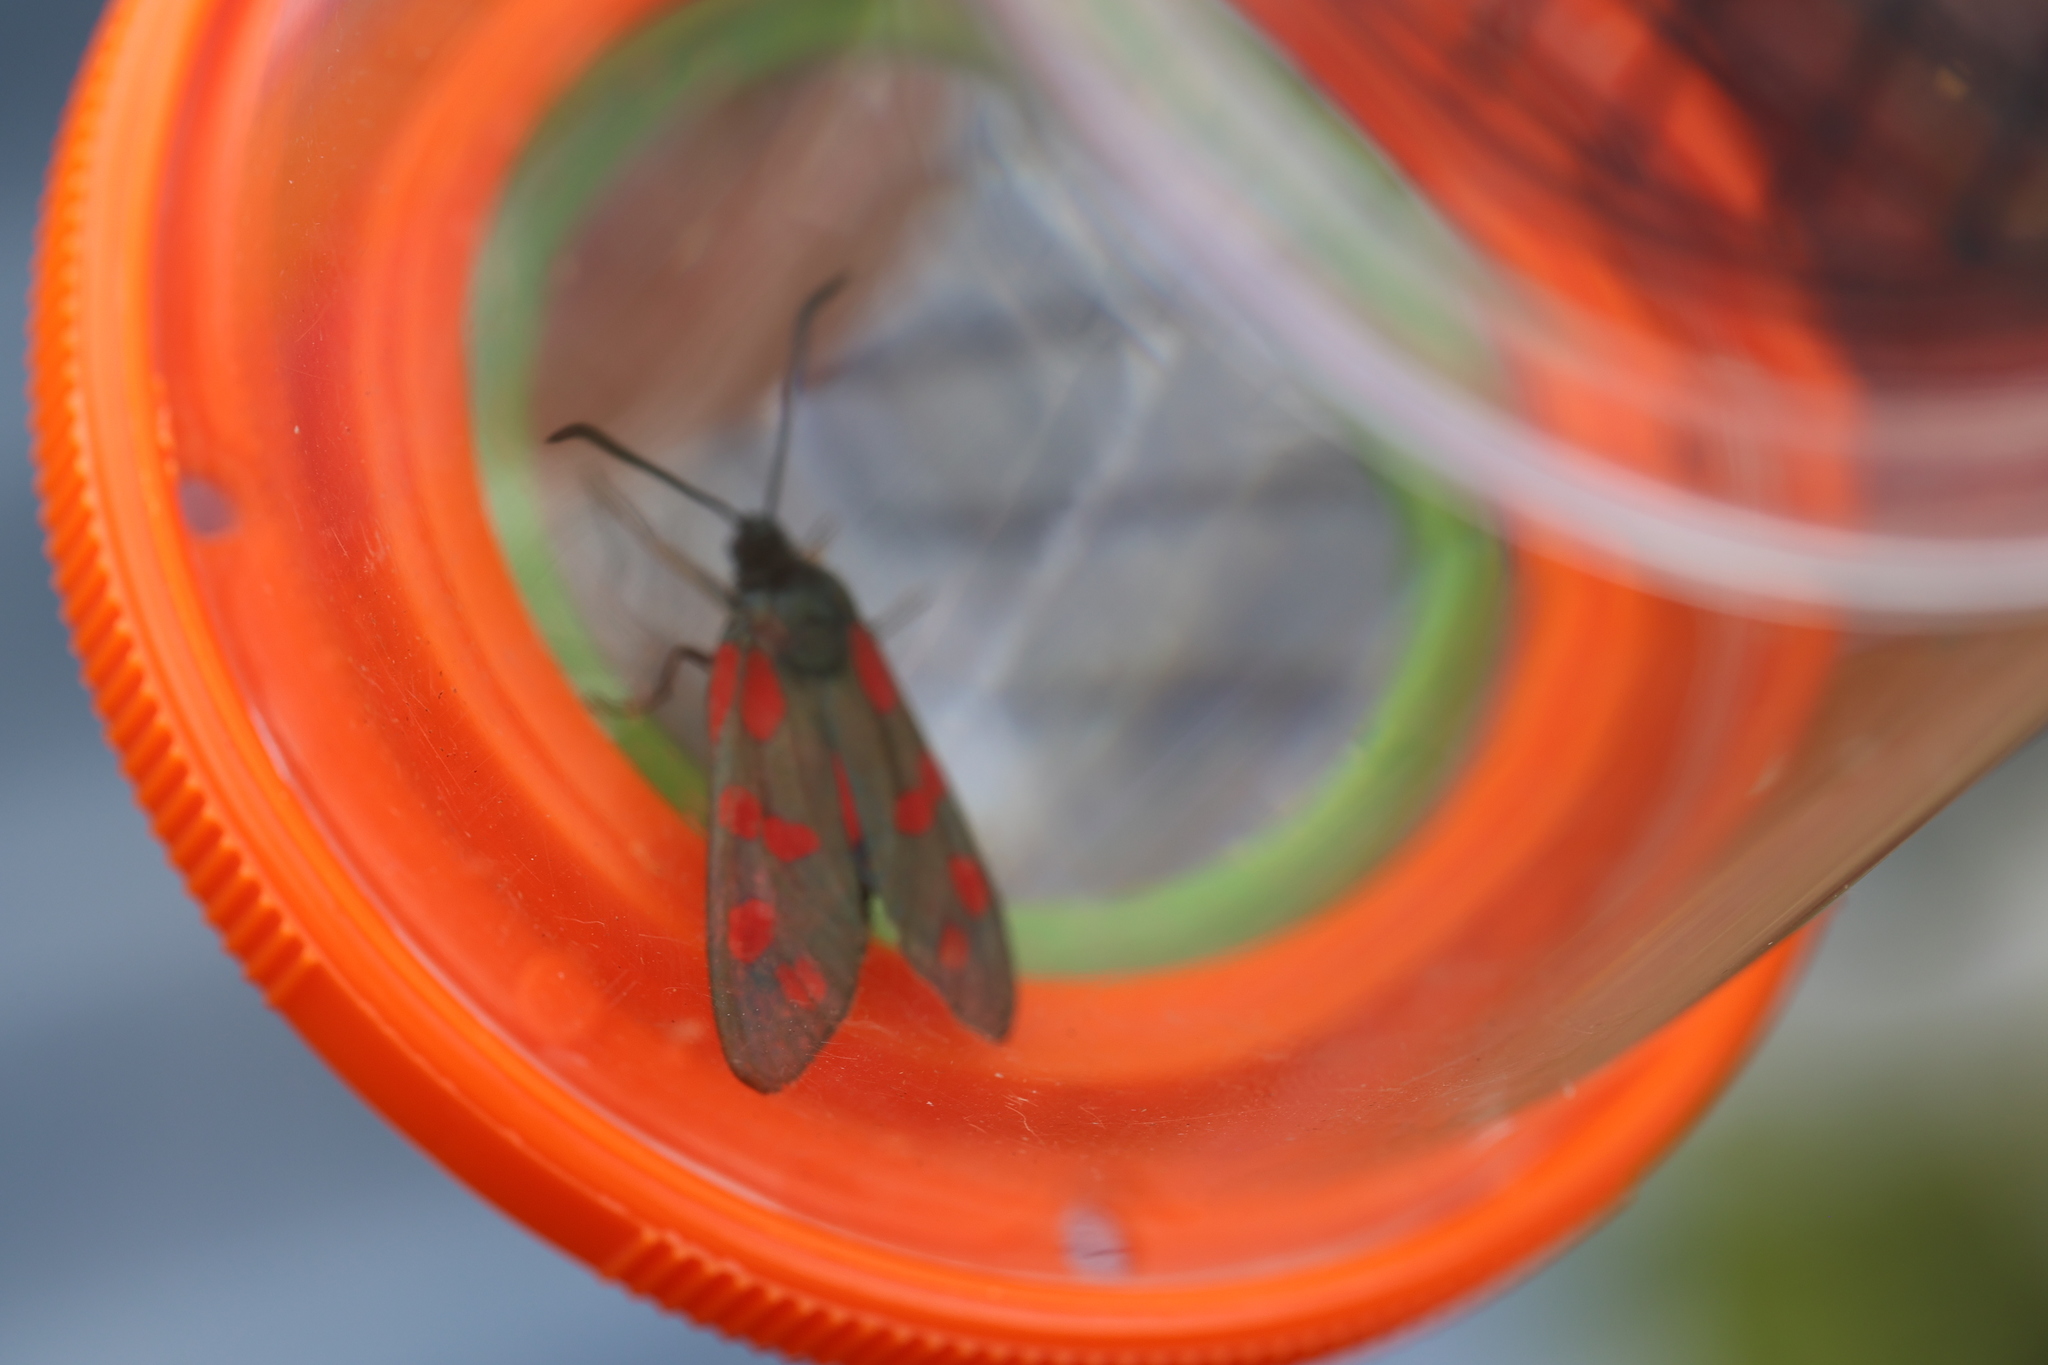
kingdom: Animalia
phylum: Arthropoda
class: Insecta
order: Lepidoptera
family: Zygaenidae
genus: Zygaena
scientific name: Zygaena filipendulae
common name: Six-spot burnet
